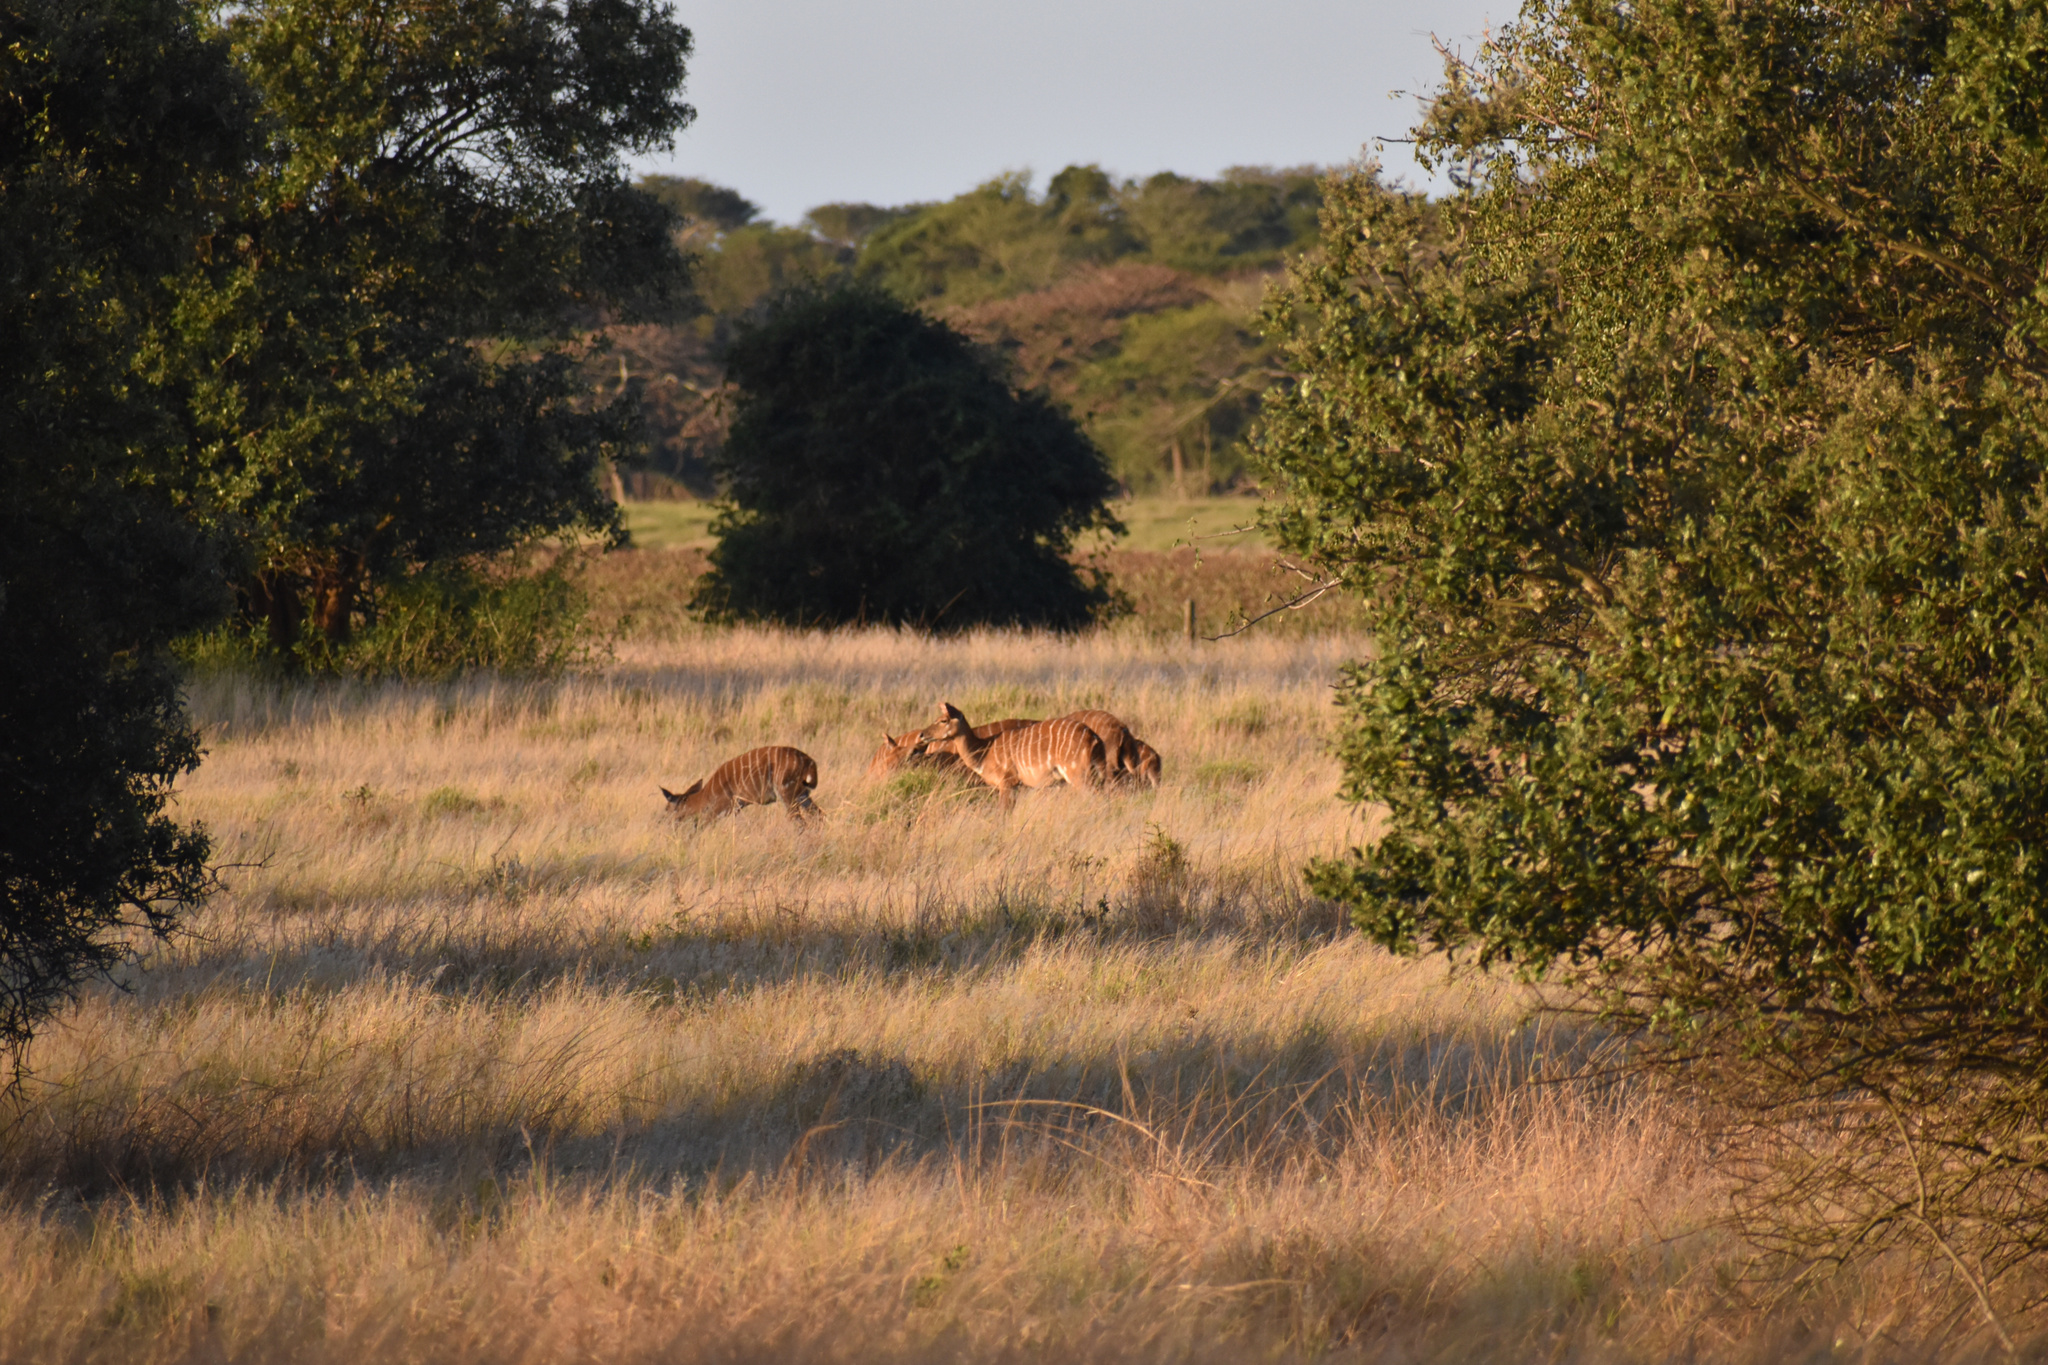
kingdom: Animalia
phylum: Chordata
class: Mammalia
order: Artiodactyla
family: Bovidae
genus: Tragelaphus
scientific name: Tragelaphus angasii
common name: Nyala
